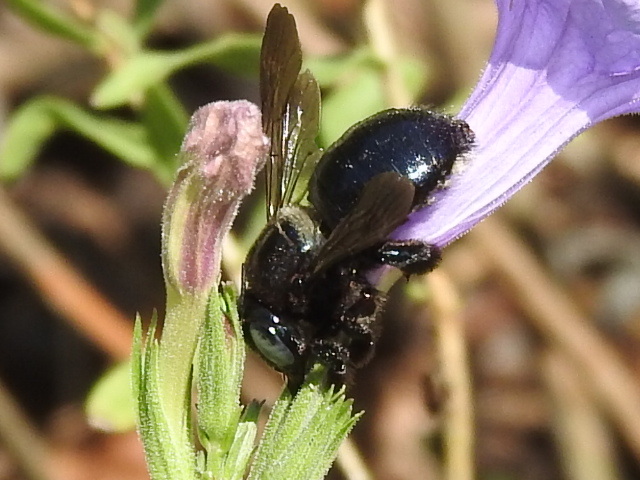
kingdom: Animalia
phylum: Arthropoda
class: Insecta
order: Hymenoptera
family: Apidae
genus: Xylocopa
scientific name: Xylocopa micans
